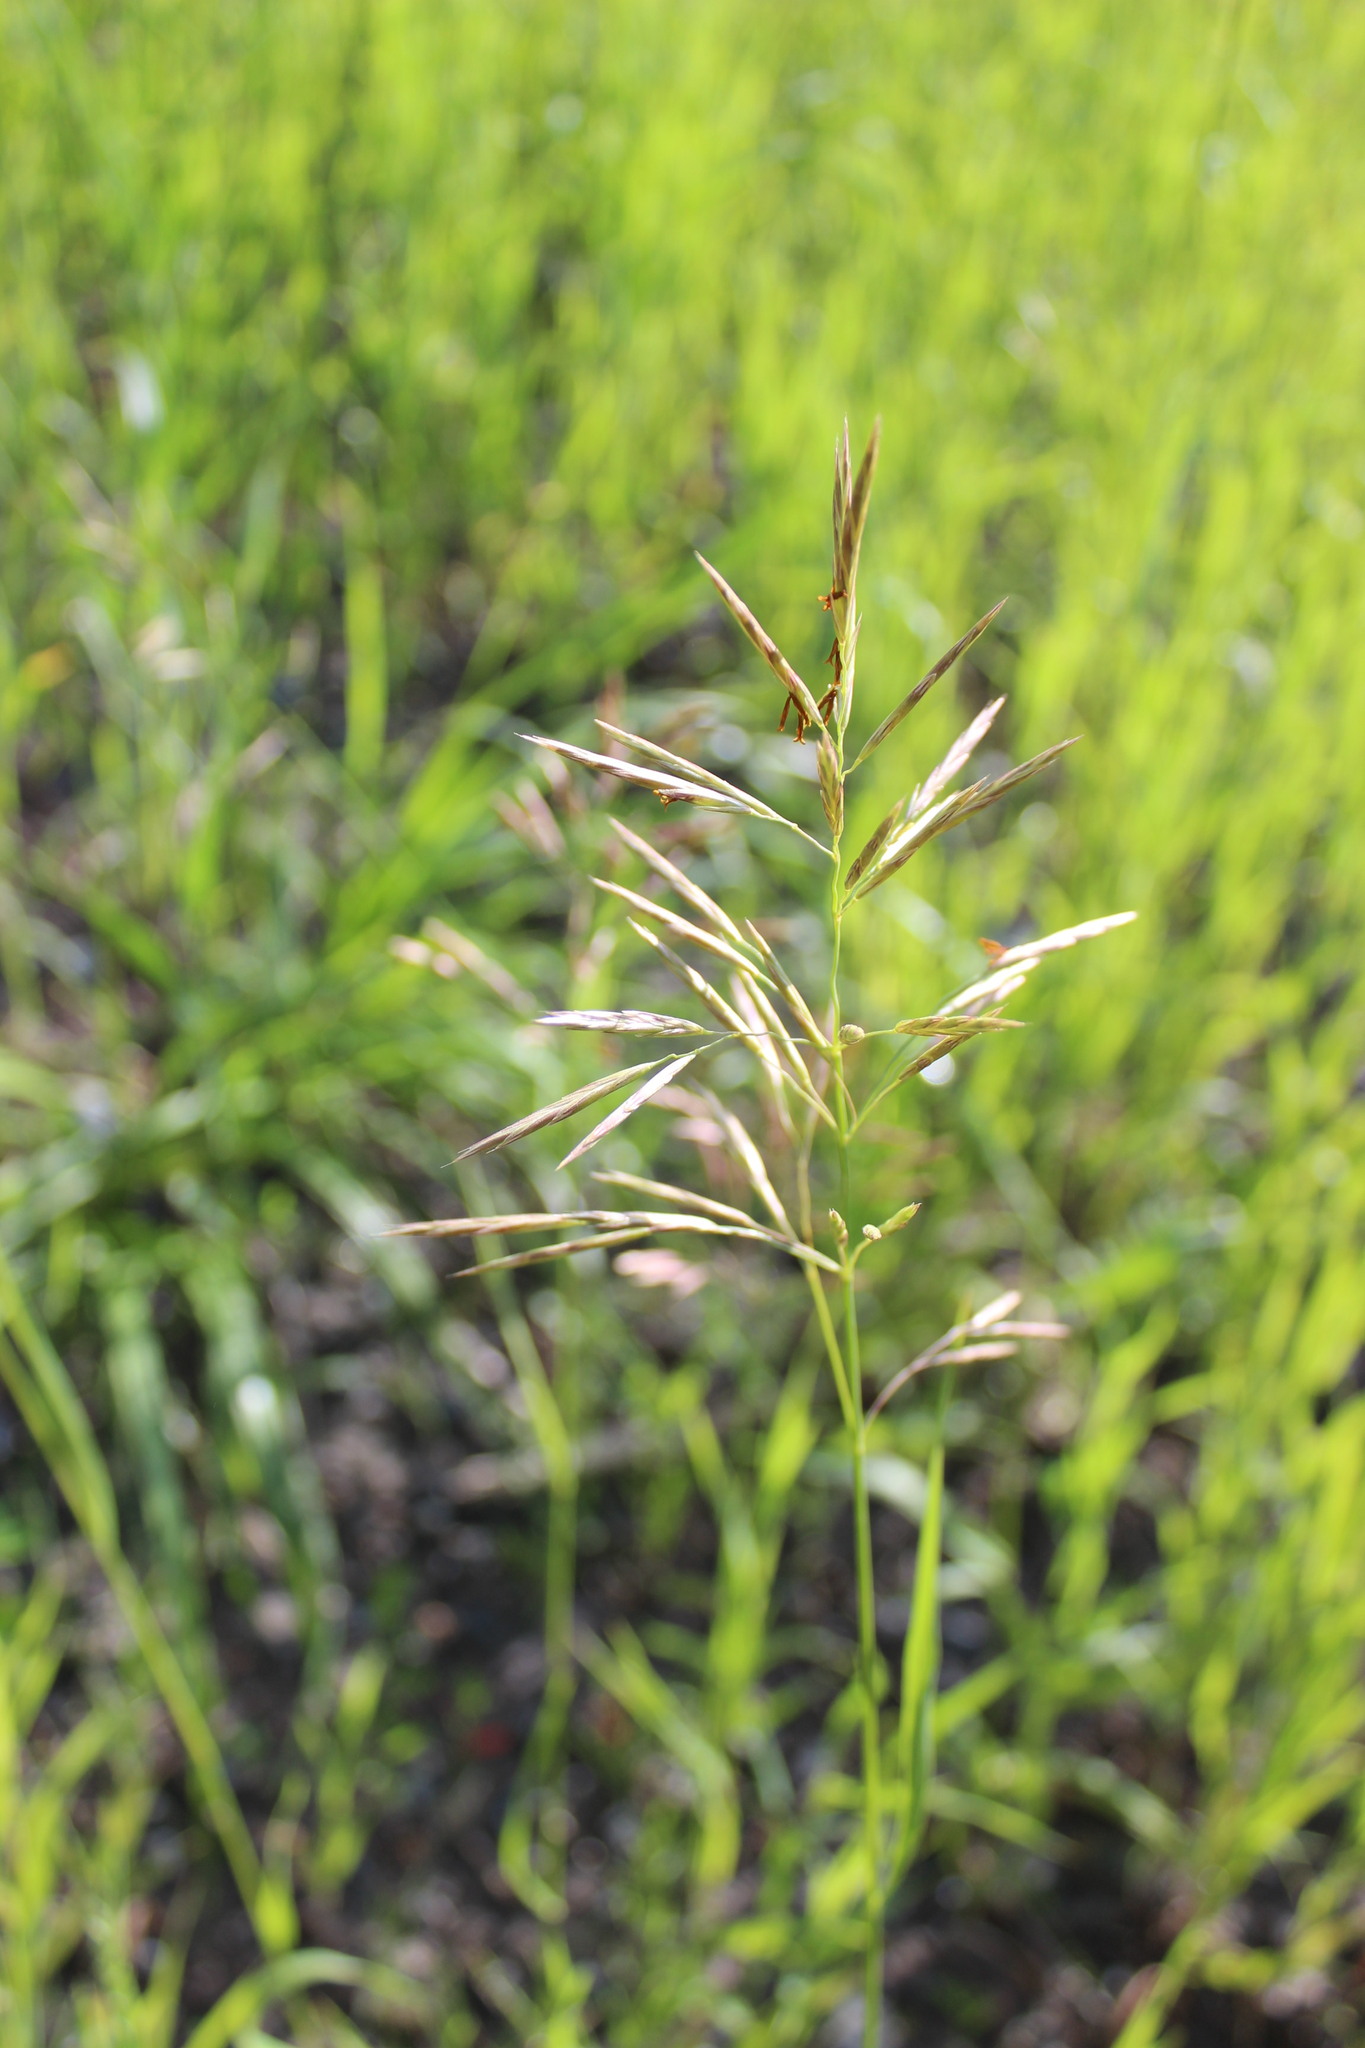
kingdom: Plantae
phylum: Tracheophyta
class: Liliopsida
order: Poales
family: Poaceae
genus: Bromus
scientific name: Bromus inermis
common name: Smooth brome
